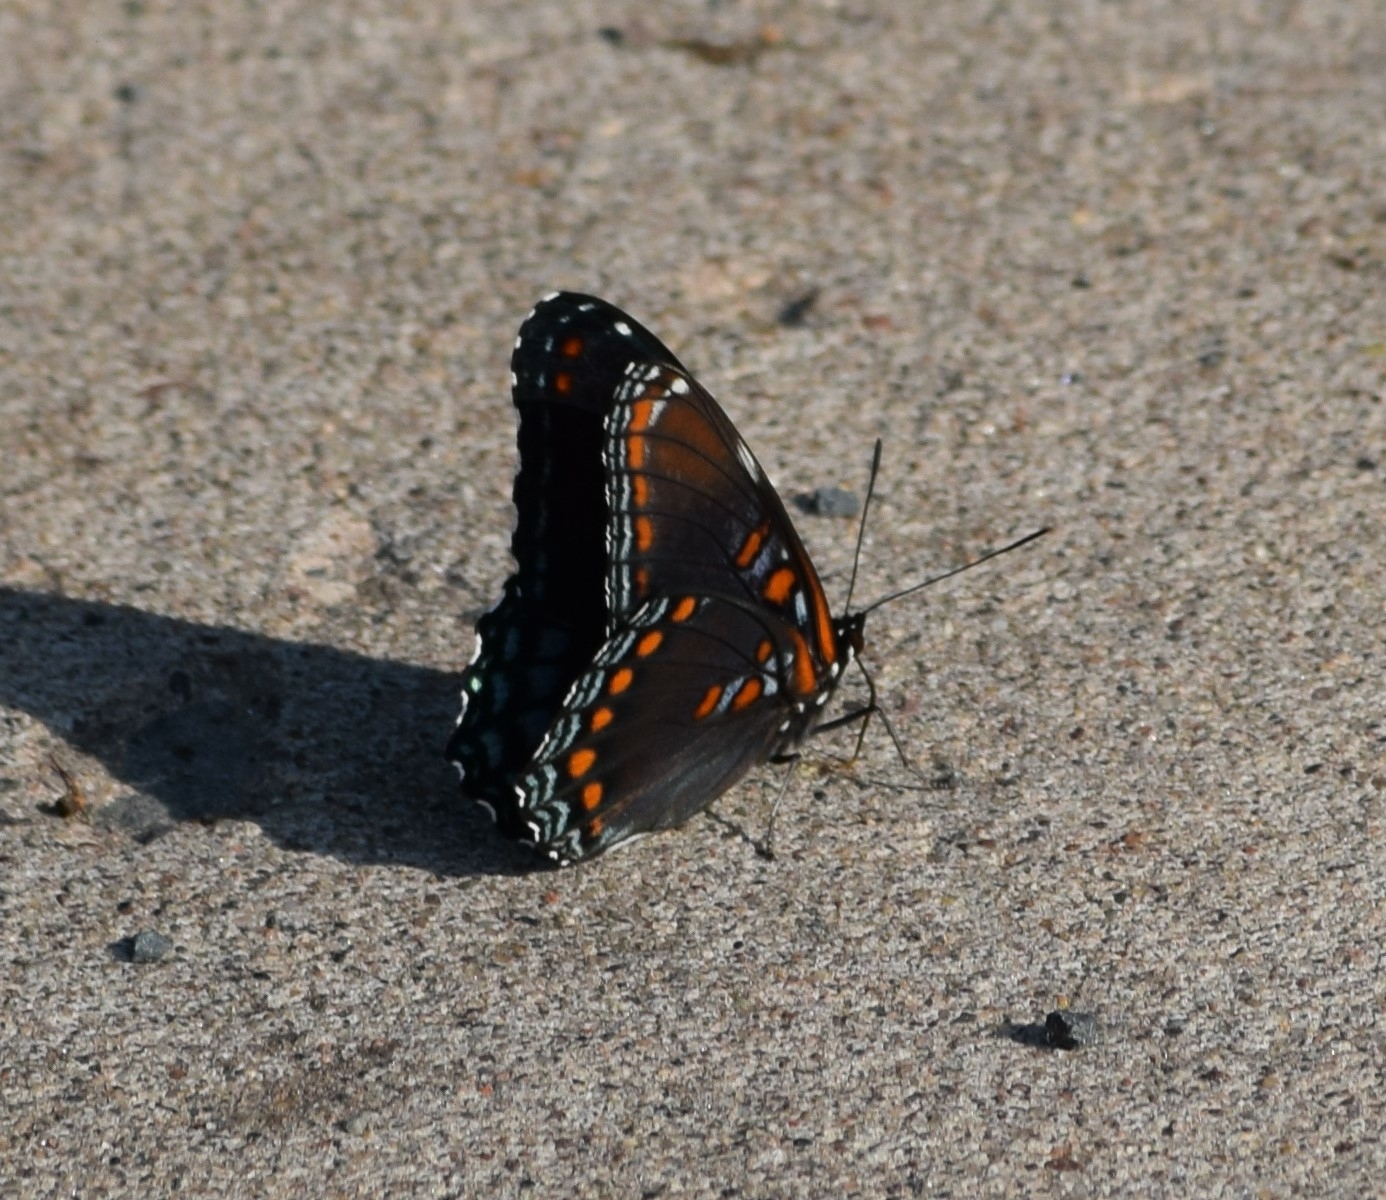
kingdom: Animalia
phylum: Arthropoda
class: Insecta
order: Lepidoptera
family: Nymphalidae
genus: Limenitis
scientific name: Limenitis astyanax
